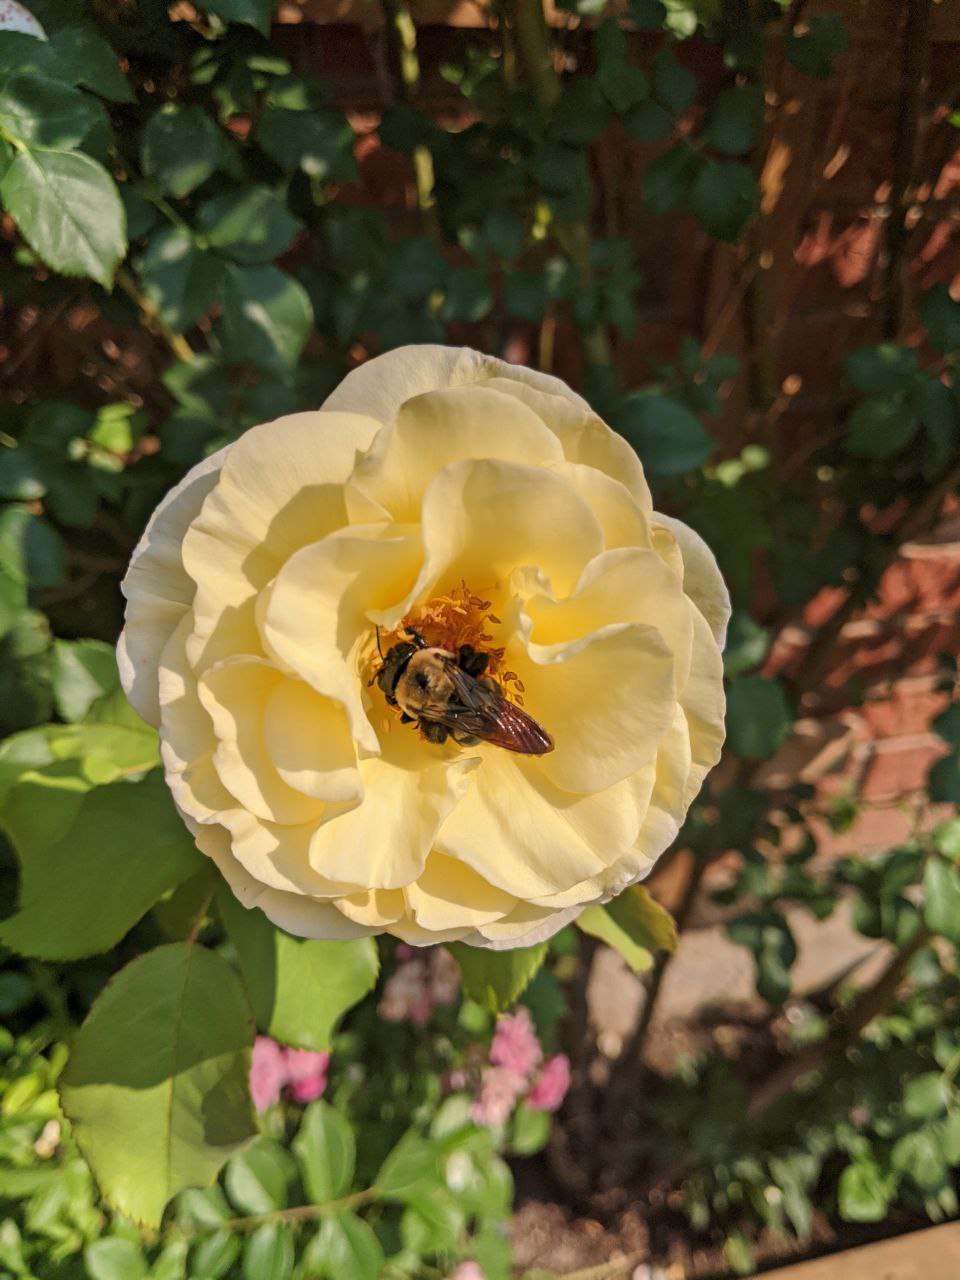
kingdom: Animalia
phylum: Arthropoda
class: Insecta
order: Hymenoptera
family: Apidae
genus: Xylocopa
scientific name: Xylocopa virginica
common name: Carpenter bee
